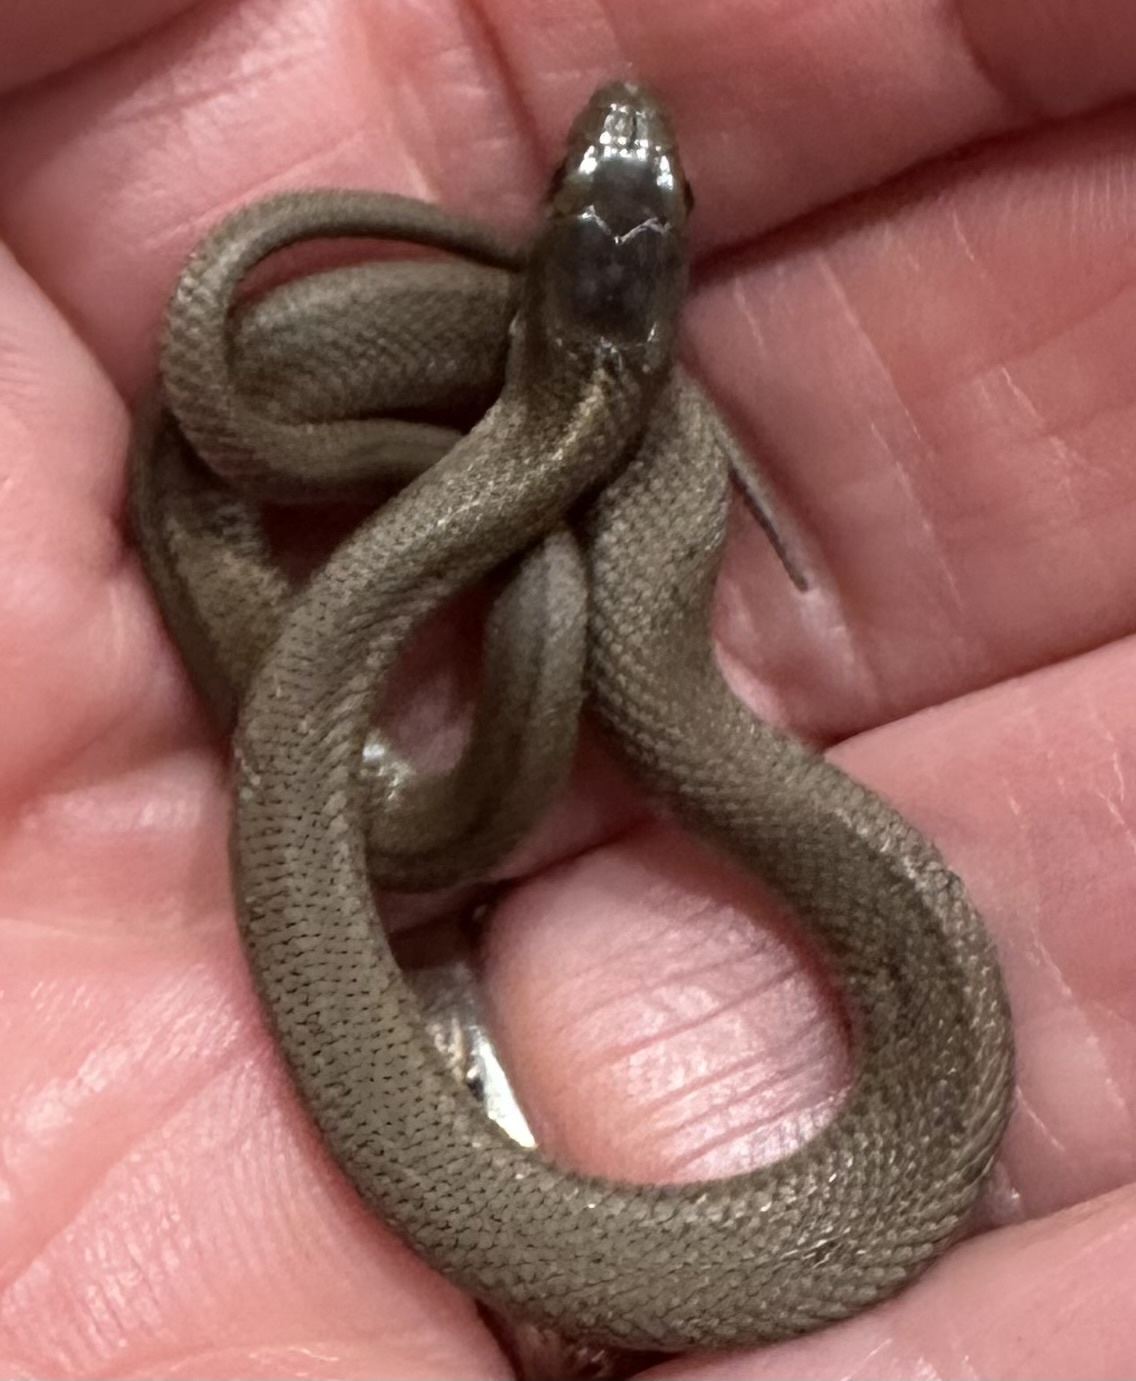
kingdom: Animalia
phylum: Chordata
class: Squamata
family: Colubridae
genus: Thamnophis
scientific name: Thamnophis ordinoides
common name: Northwestern garter snake
